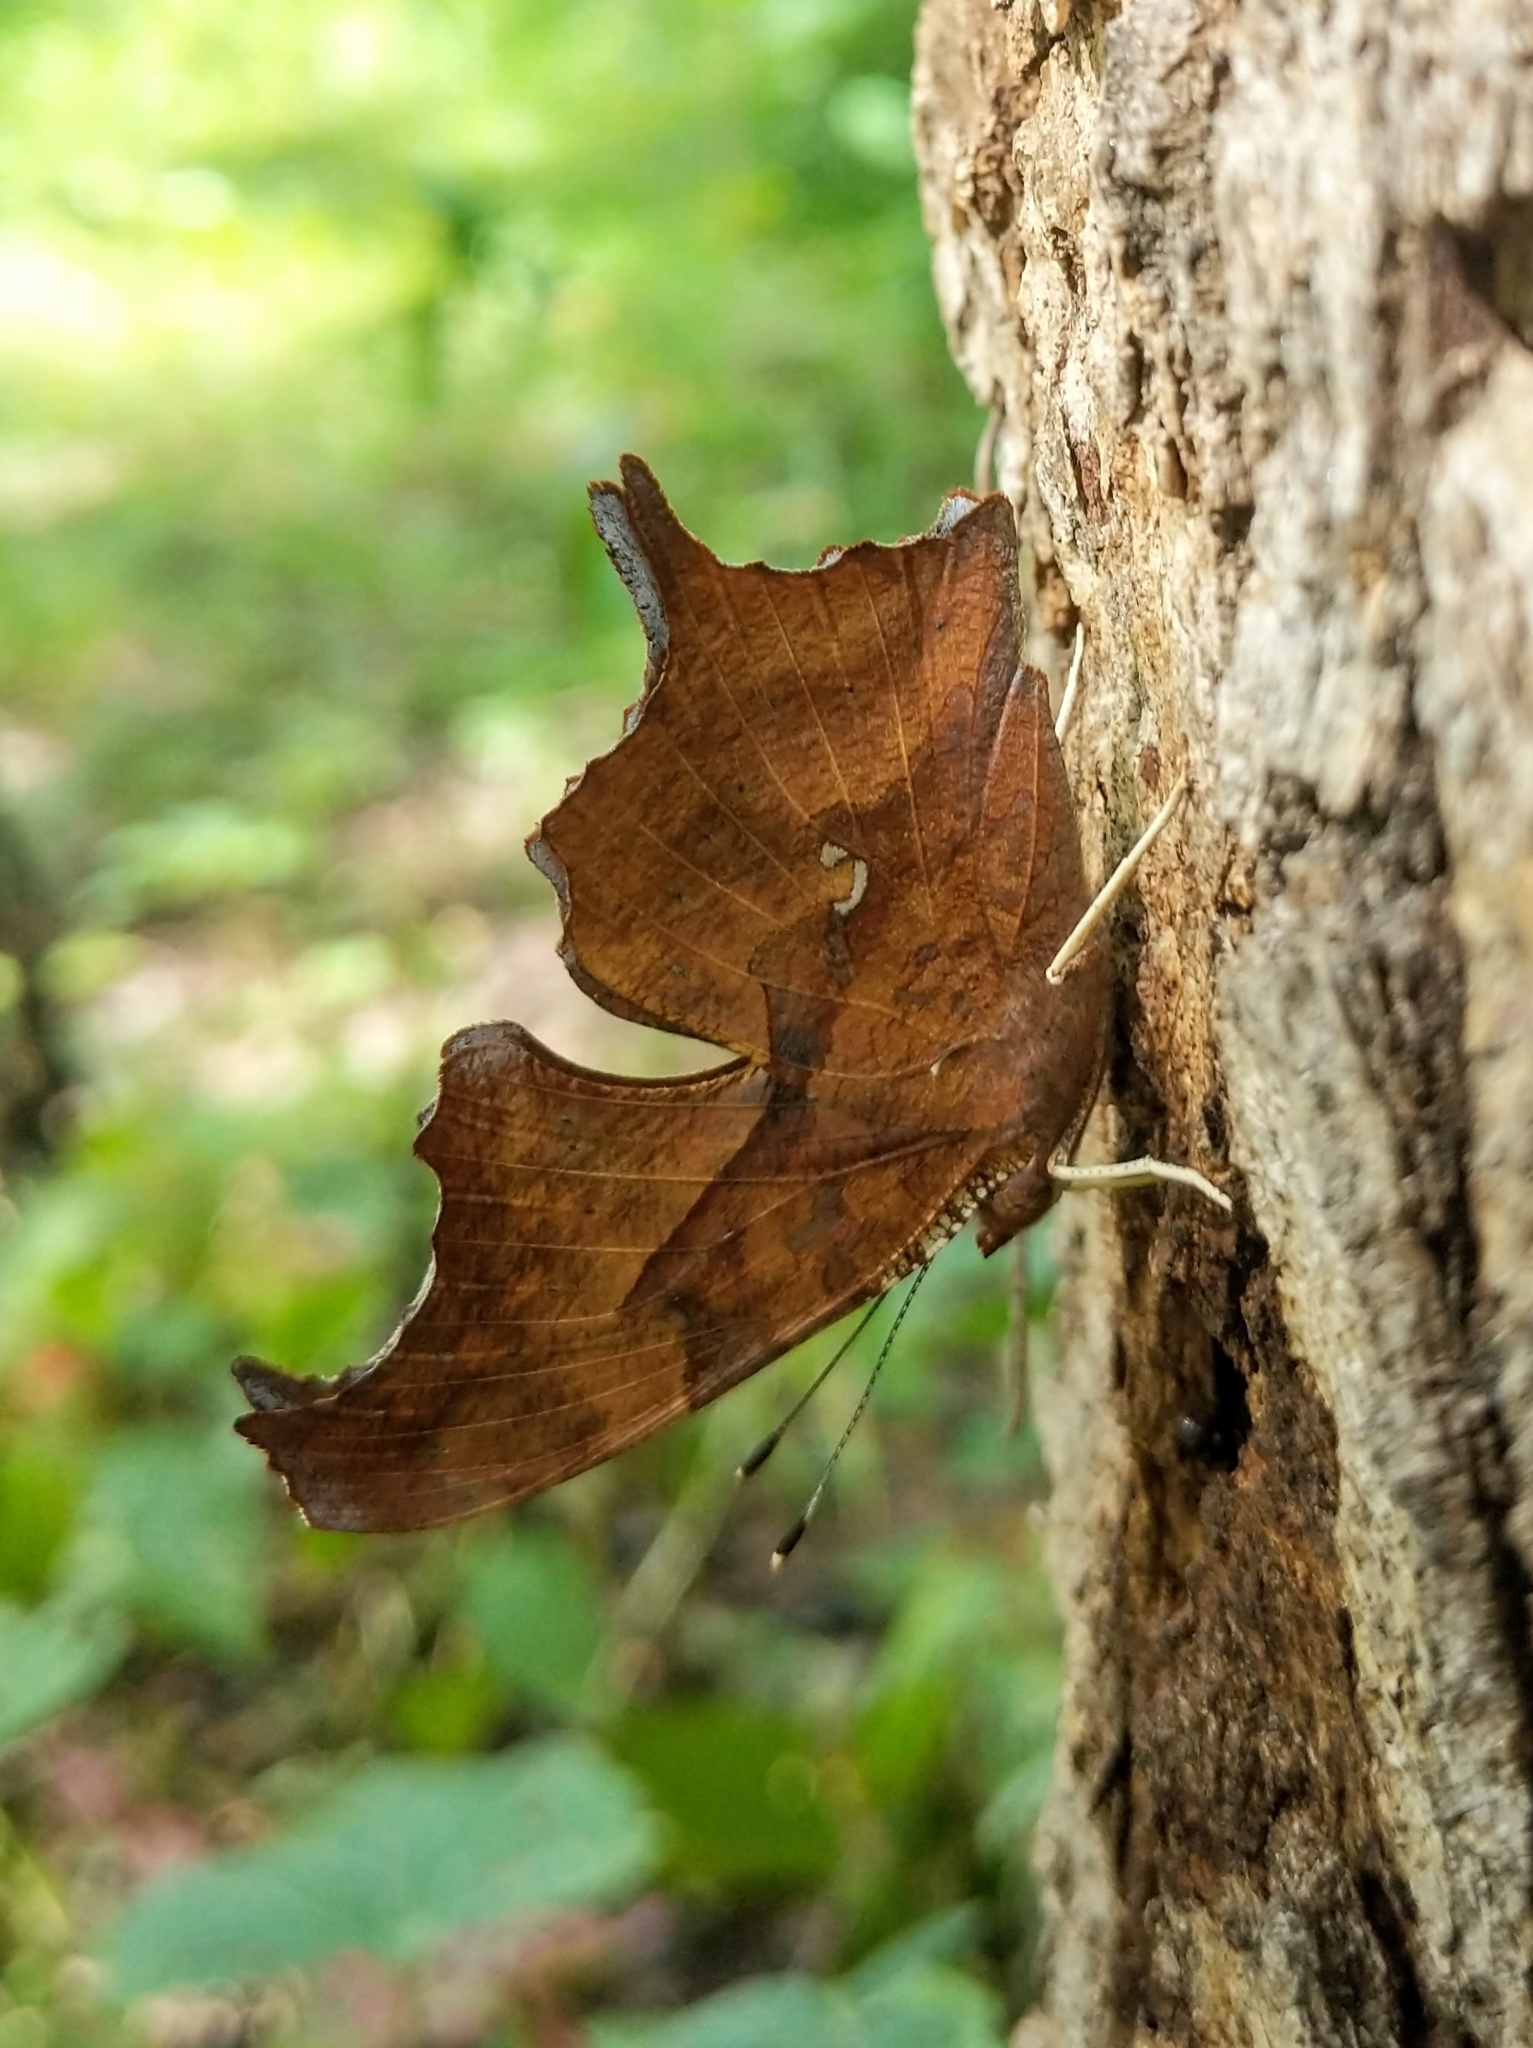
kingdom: Animalia
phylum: Arthropoda
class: Insecta
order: Lepidoptera
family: Nymphalidae
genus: Polygonia
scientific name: Polygonia interrogationis
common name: Question mark
